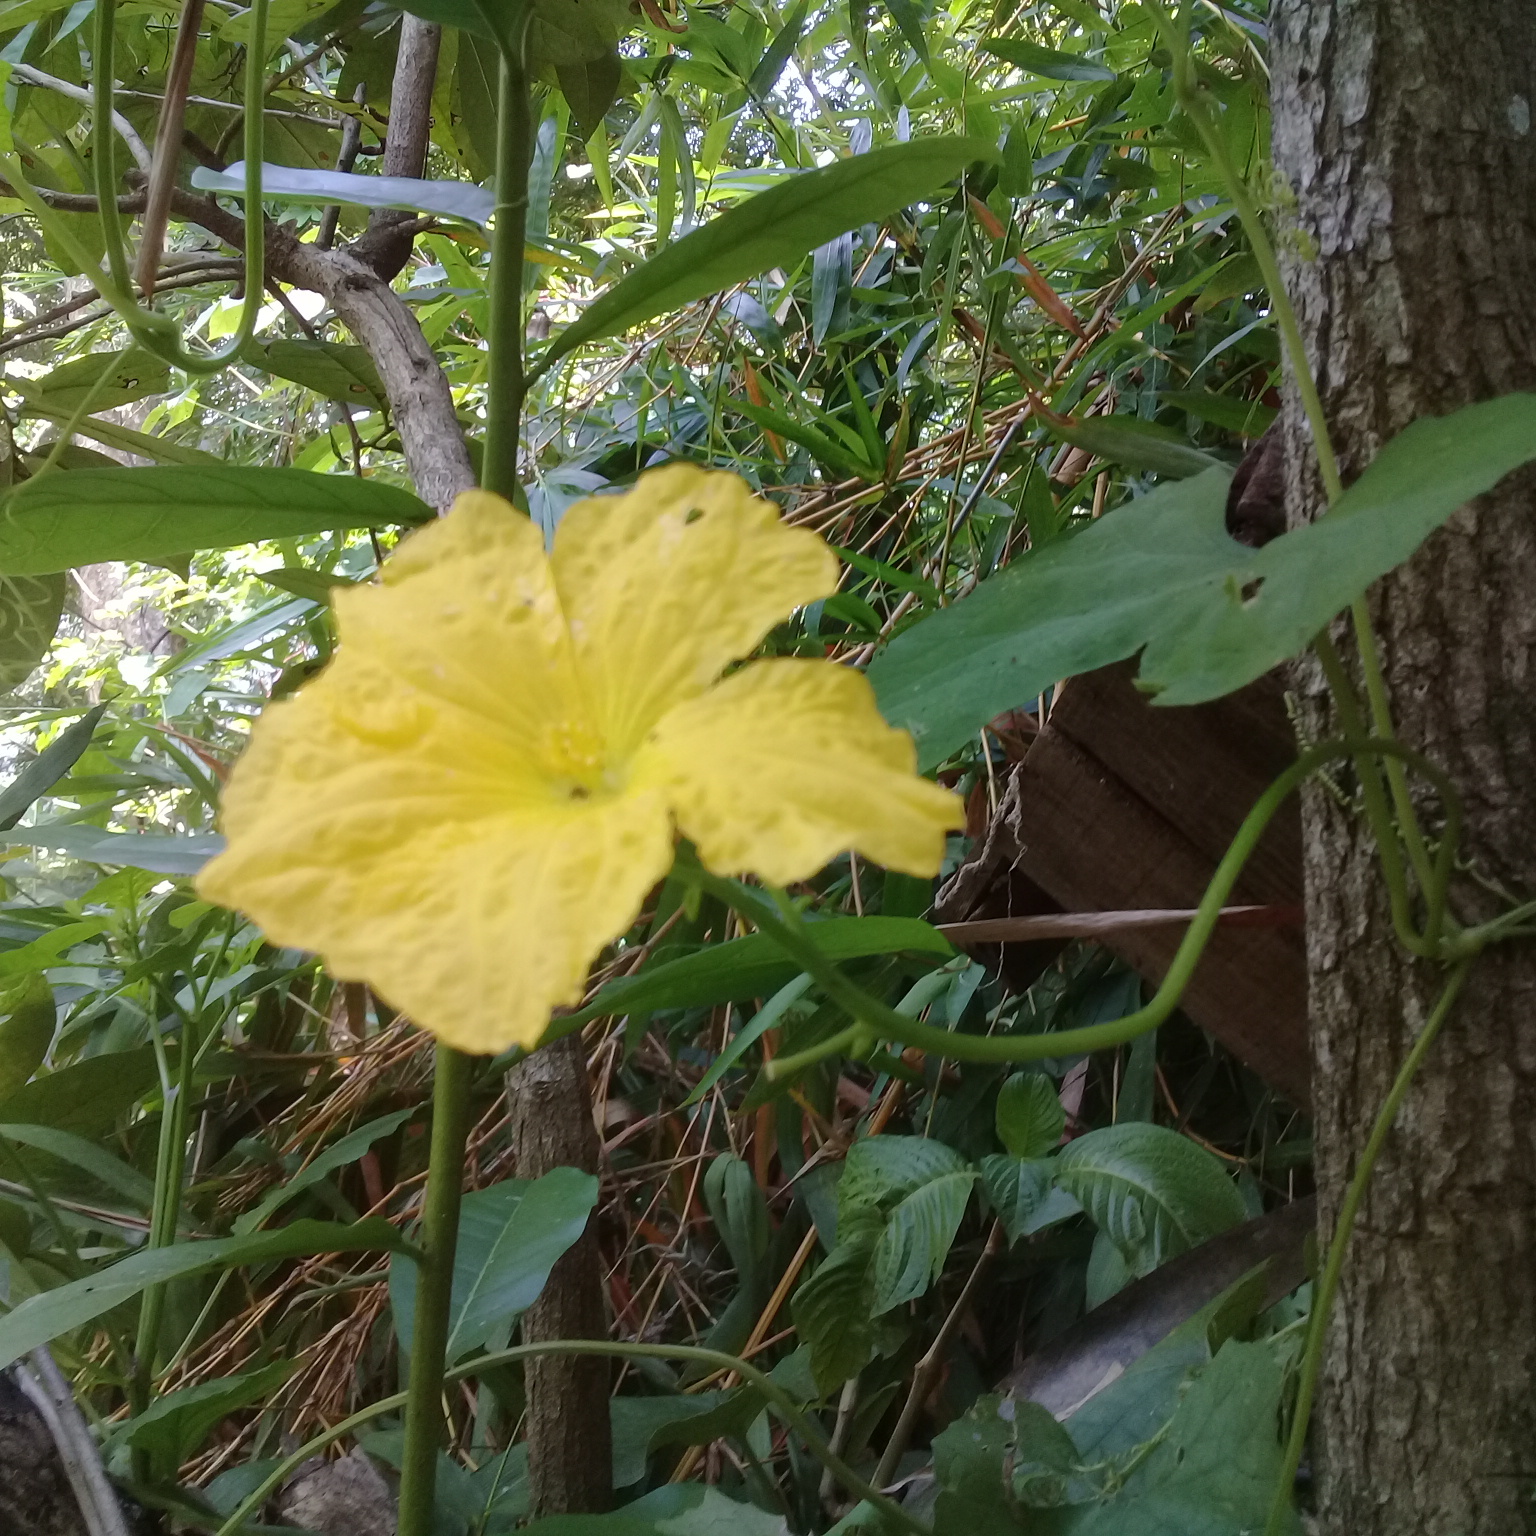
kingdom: Plantae
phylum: Tracheophyta
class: Magnoliopsida
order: Cucurbitales
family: Cucurbitaceae
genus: Luffa
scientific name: Luffa aegyptiaca
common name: Sponge gourd
